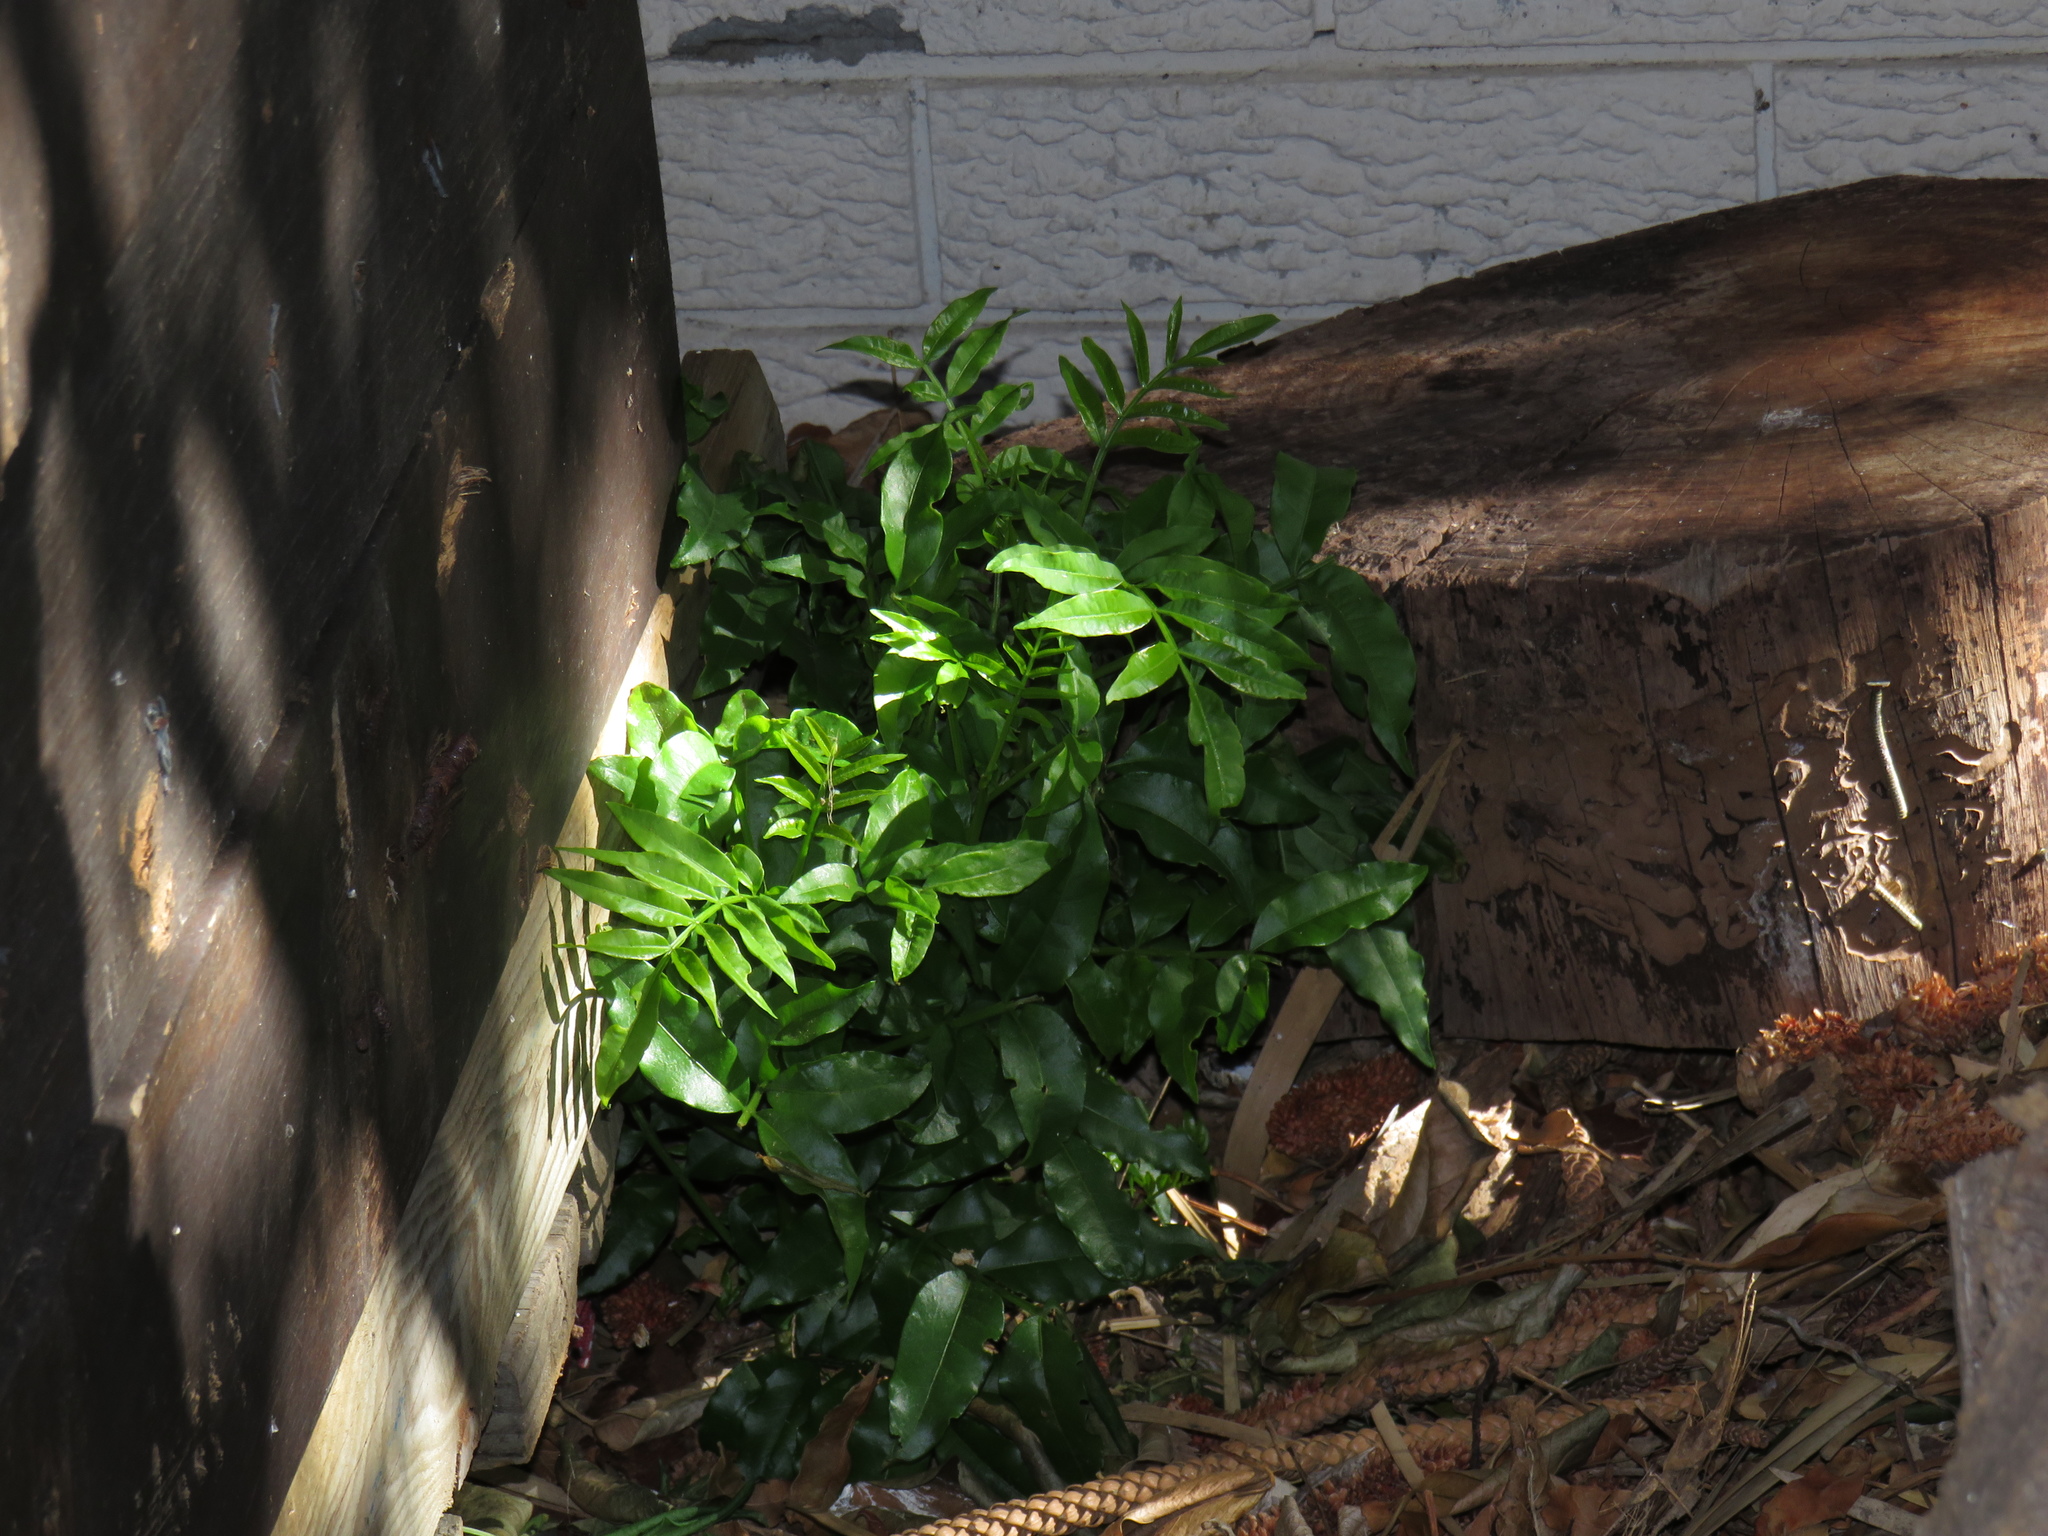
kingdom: Plantae
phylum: Tracheophyta
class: Magnoliopsida
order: Sapindales
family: Meliaceae
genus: Ekebergia
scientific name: Ekebergia capensis
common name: Cape-ash
